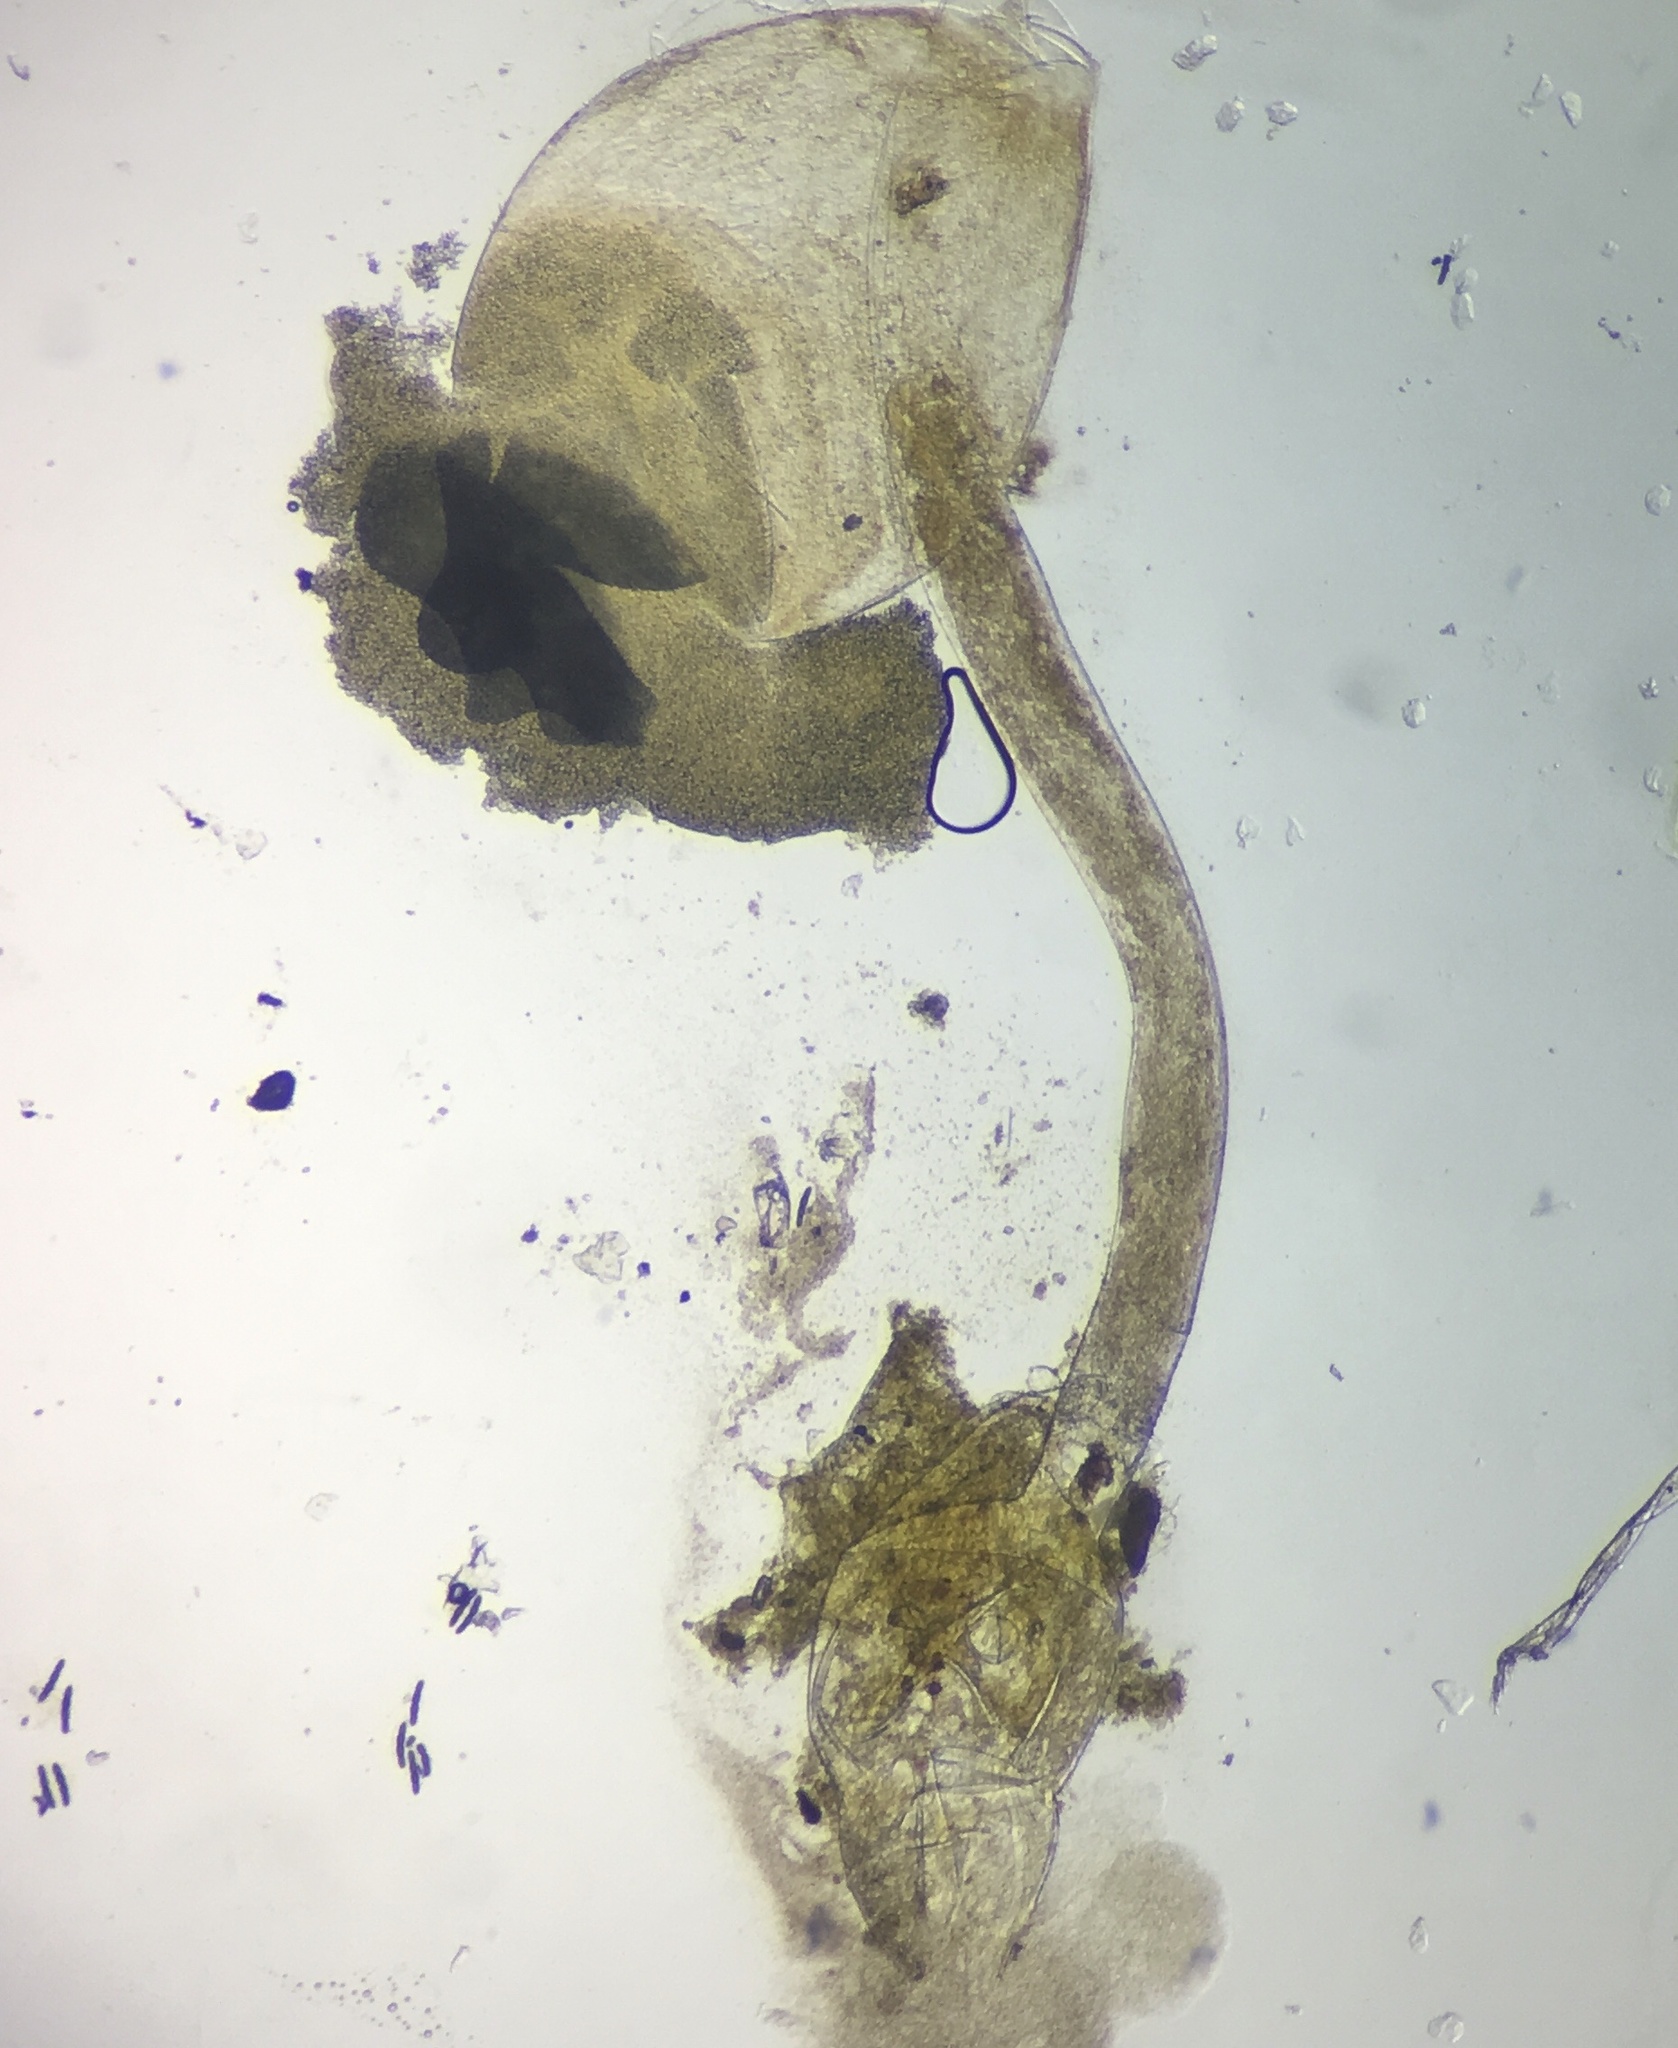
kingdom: Fungi
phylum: Mucoromycota
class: Mucoromycetes
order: Mucorales
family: Pilobolaceae
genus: Pilobolus
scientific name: Pilobolus crystallinus
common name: Dung cannon
